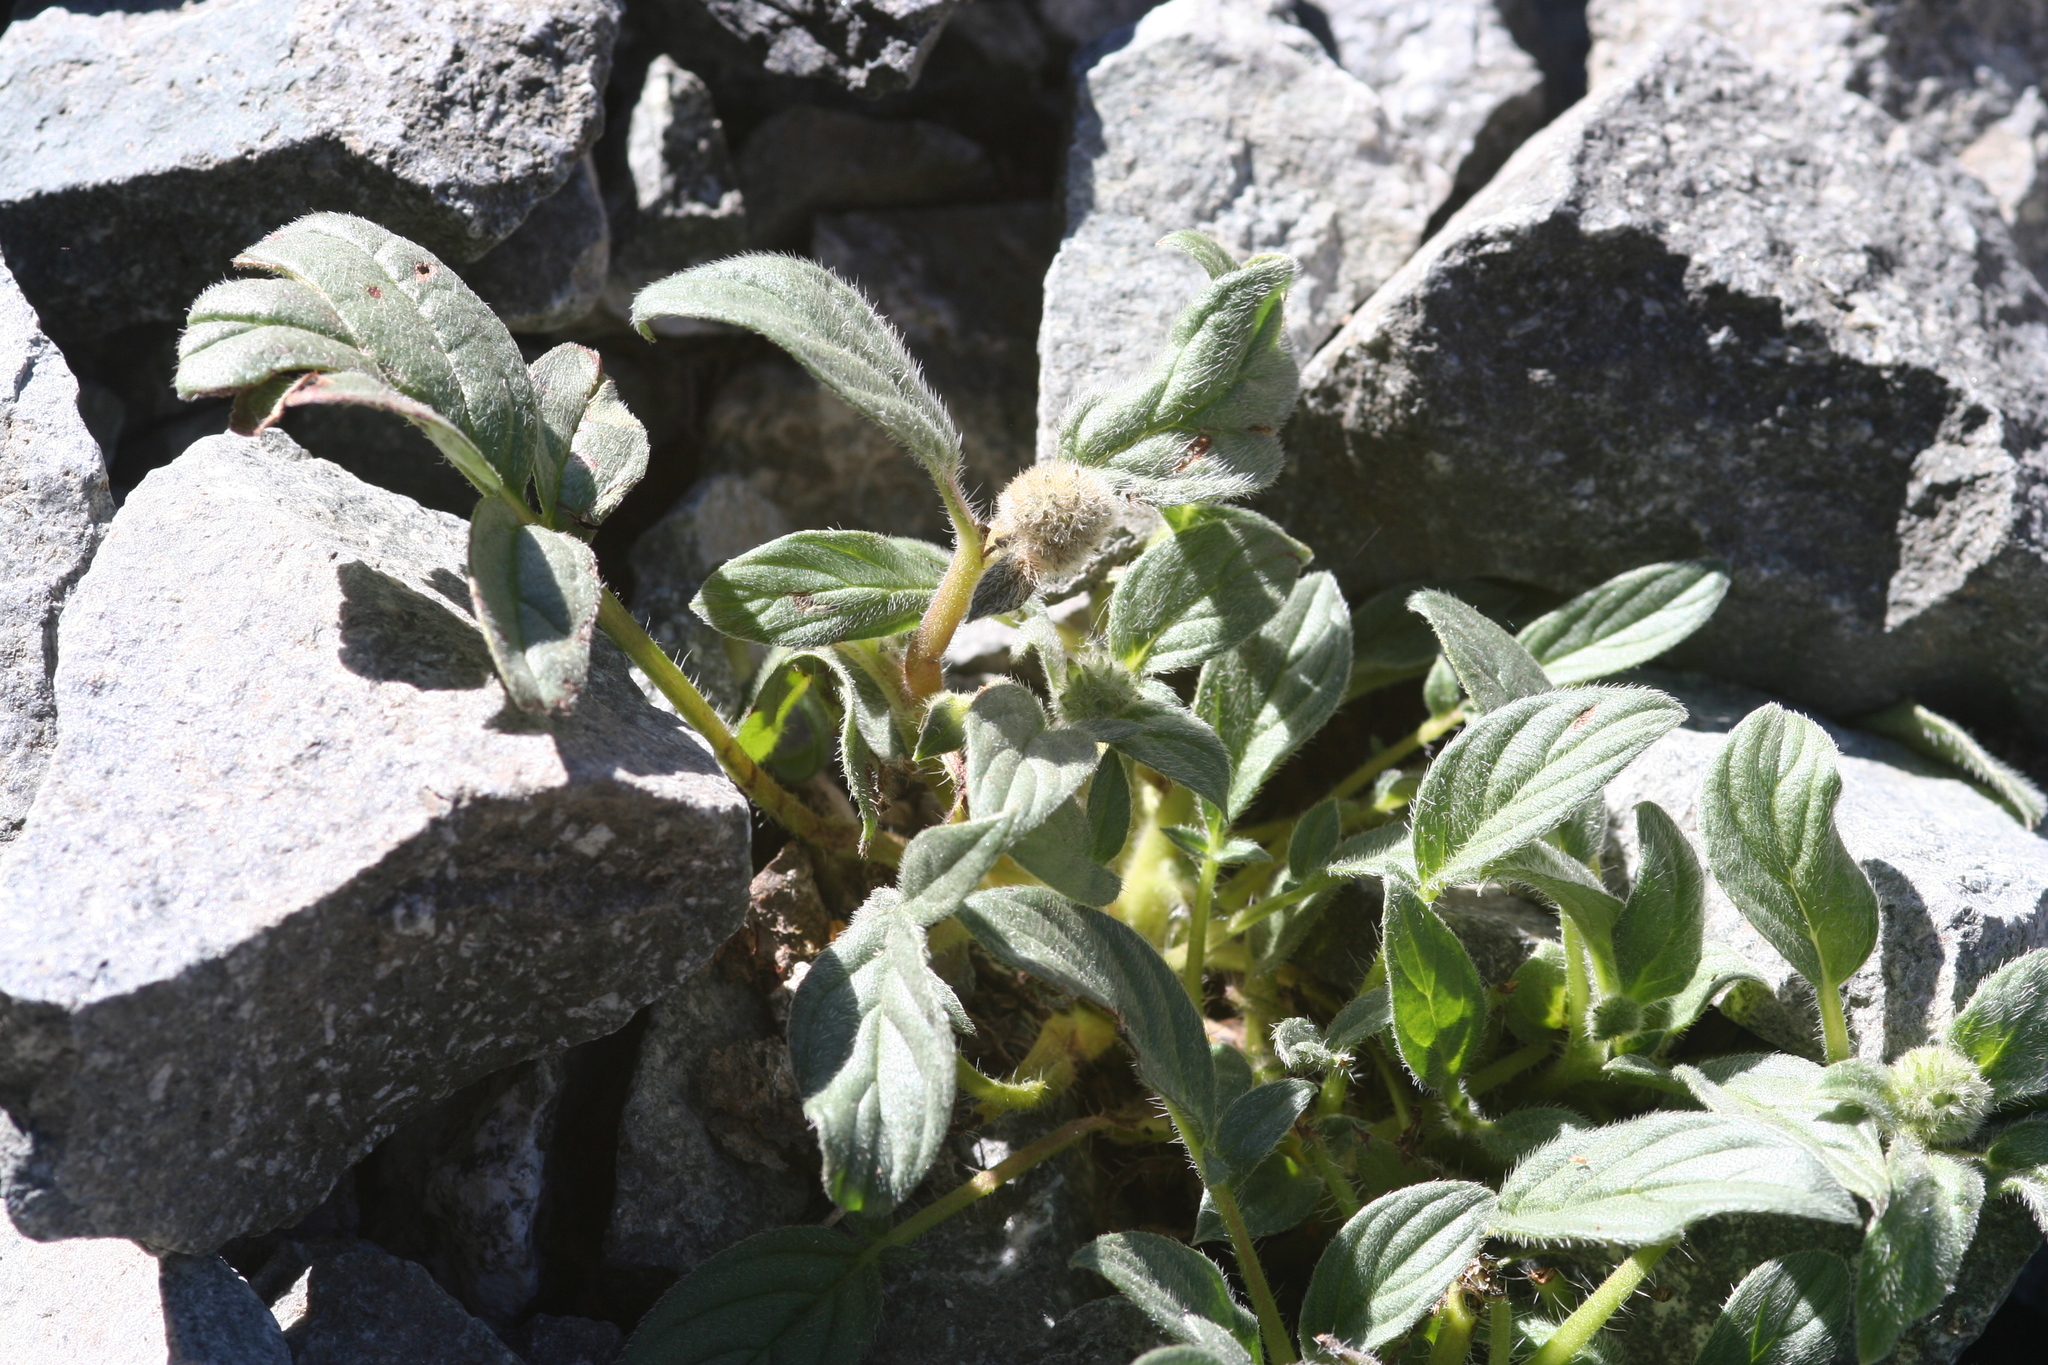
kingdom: Plantae
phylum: Tracheophyta
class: Magnoliopsida
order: Boraginales
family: Hydrophyllaceae
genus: Phacelia
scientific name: Phacelia hastata
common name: Silver-leaved phacelia
